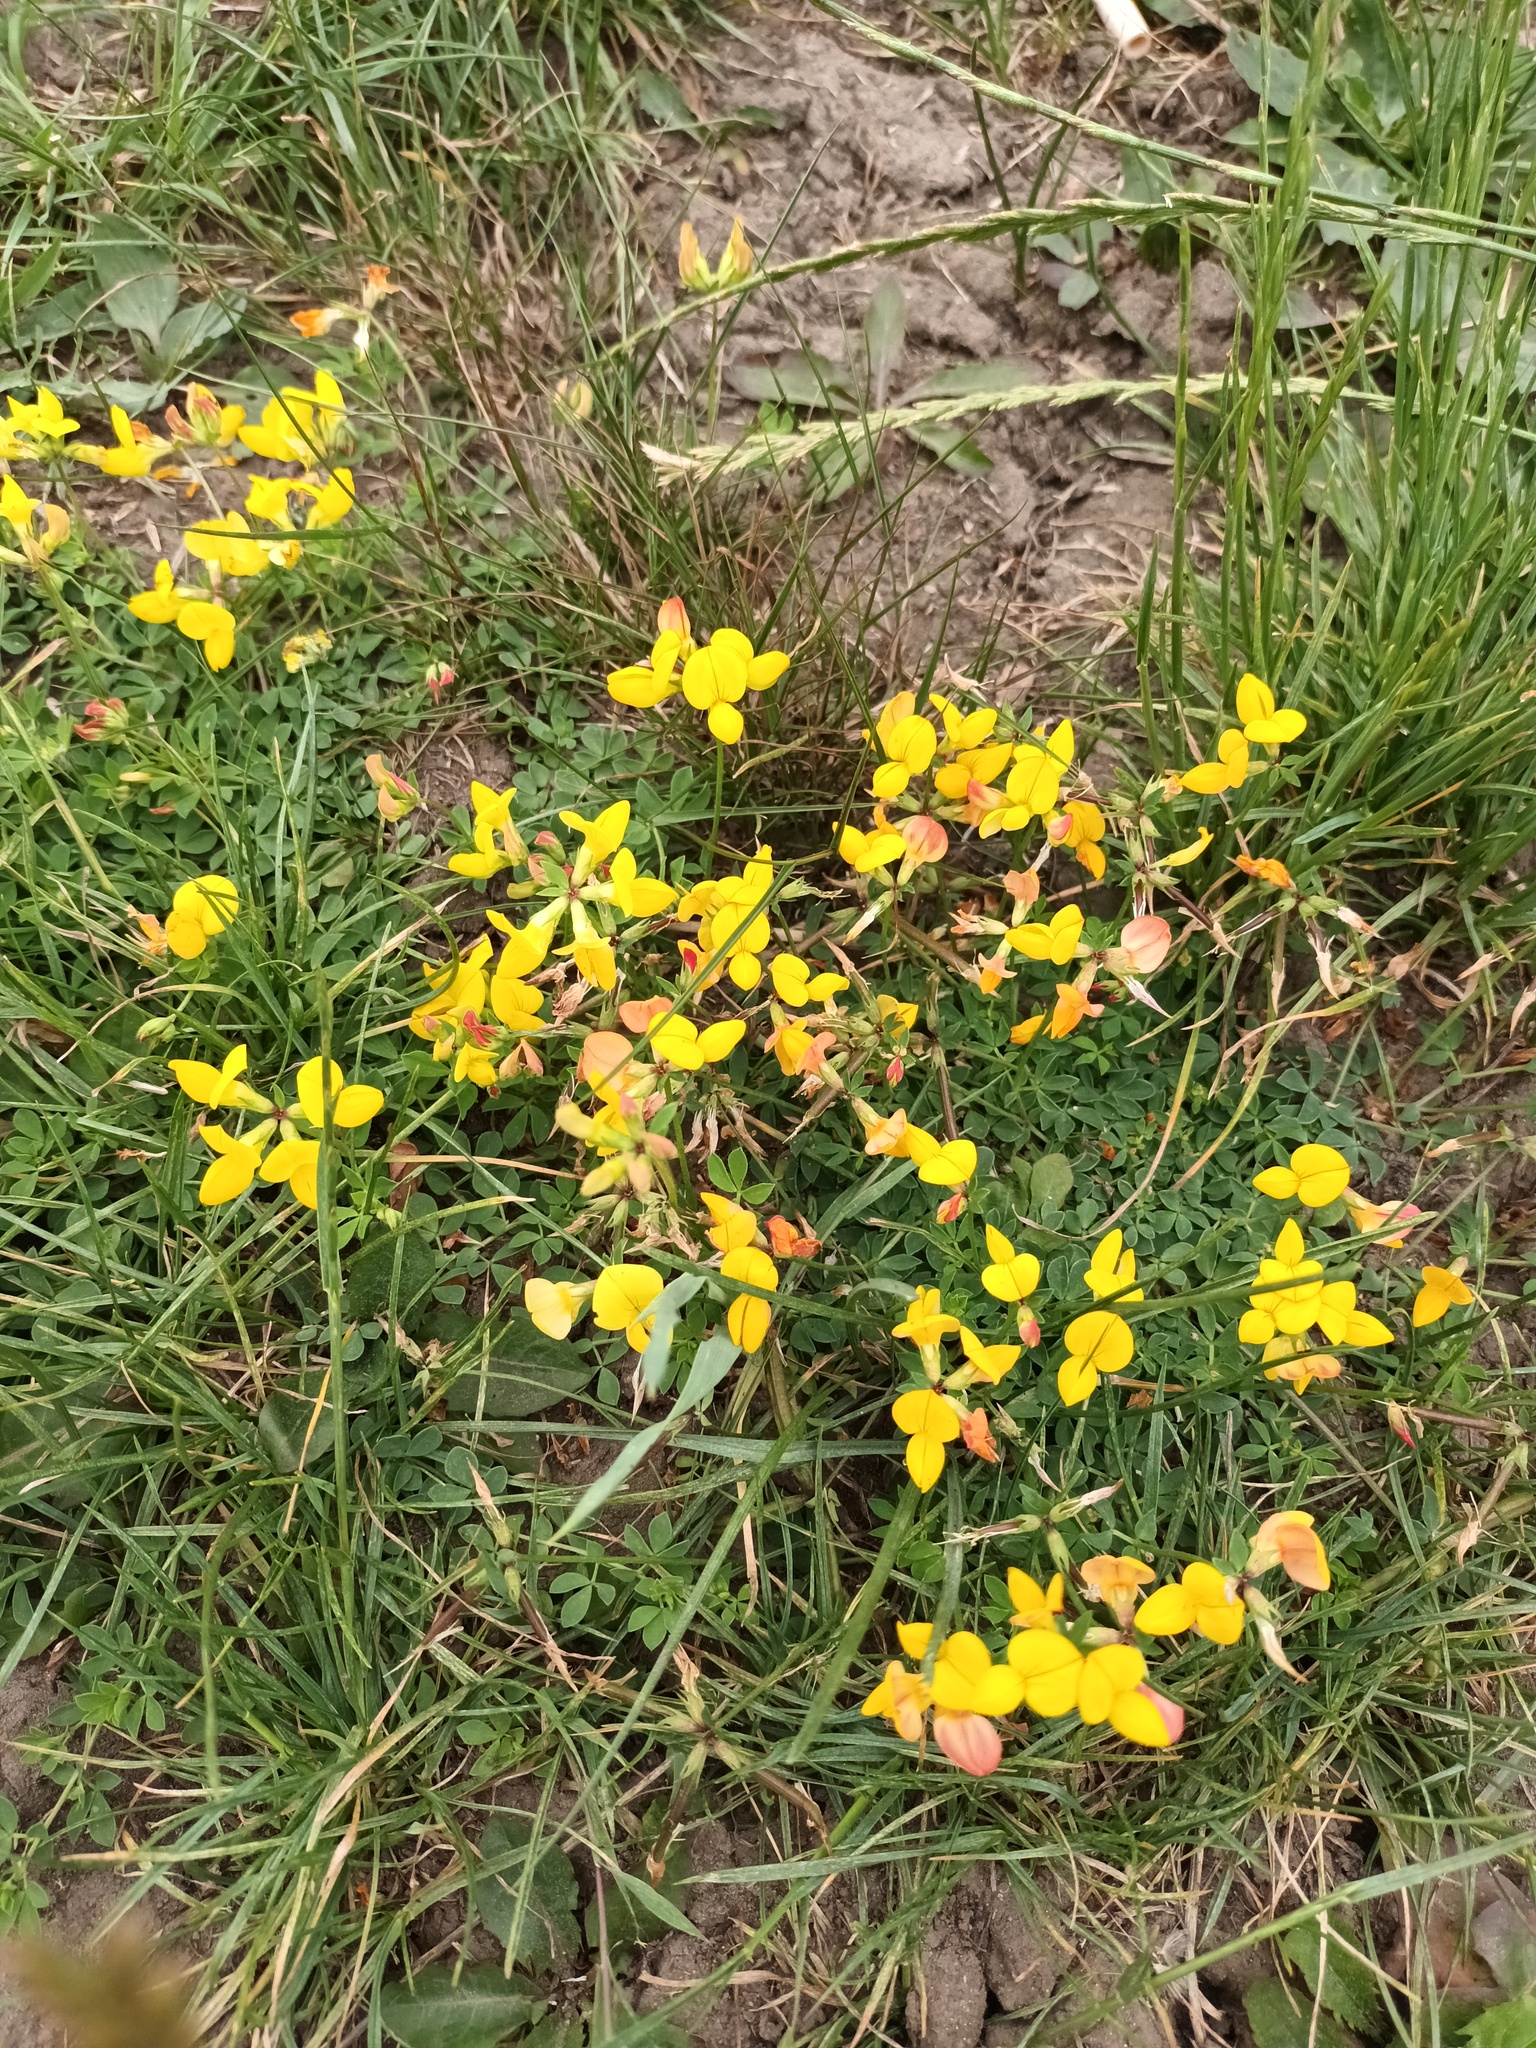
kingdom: Plantae
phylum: Tracheophyta
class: Magnoliopsida
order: Fabales
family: Fabaceae
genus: Lotus
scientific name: Lotus corniculatus
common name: Common bird's-foot-trefoil
